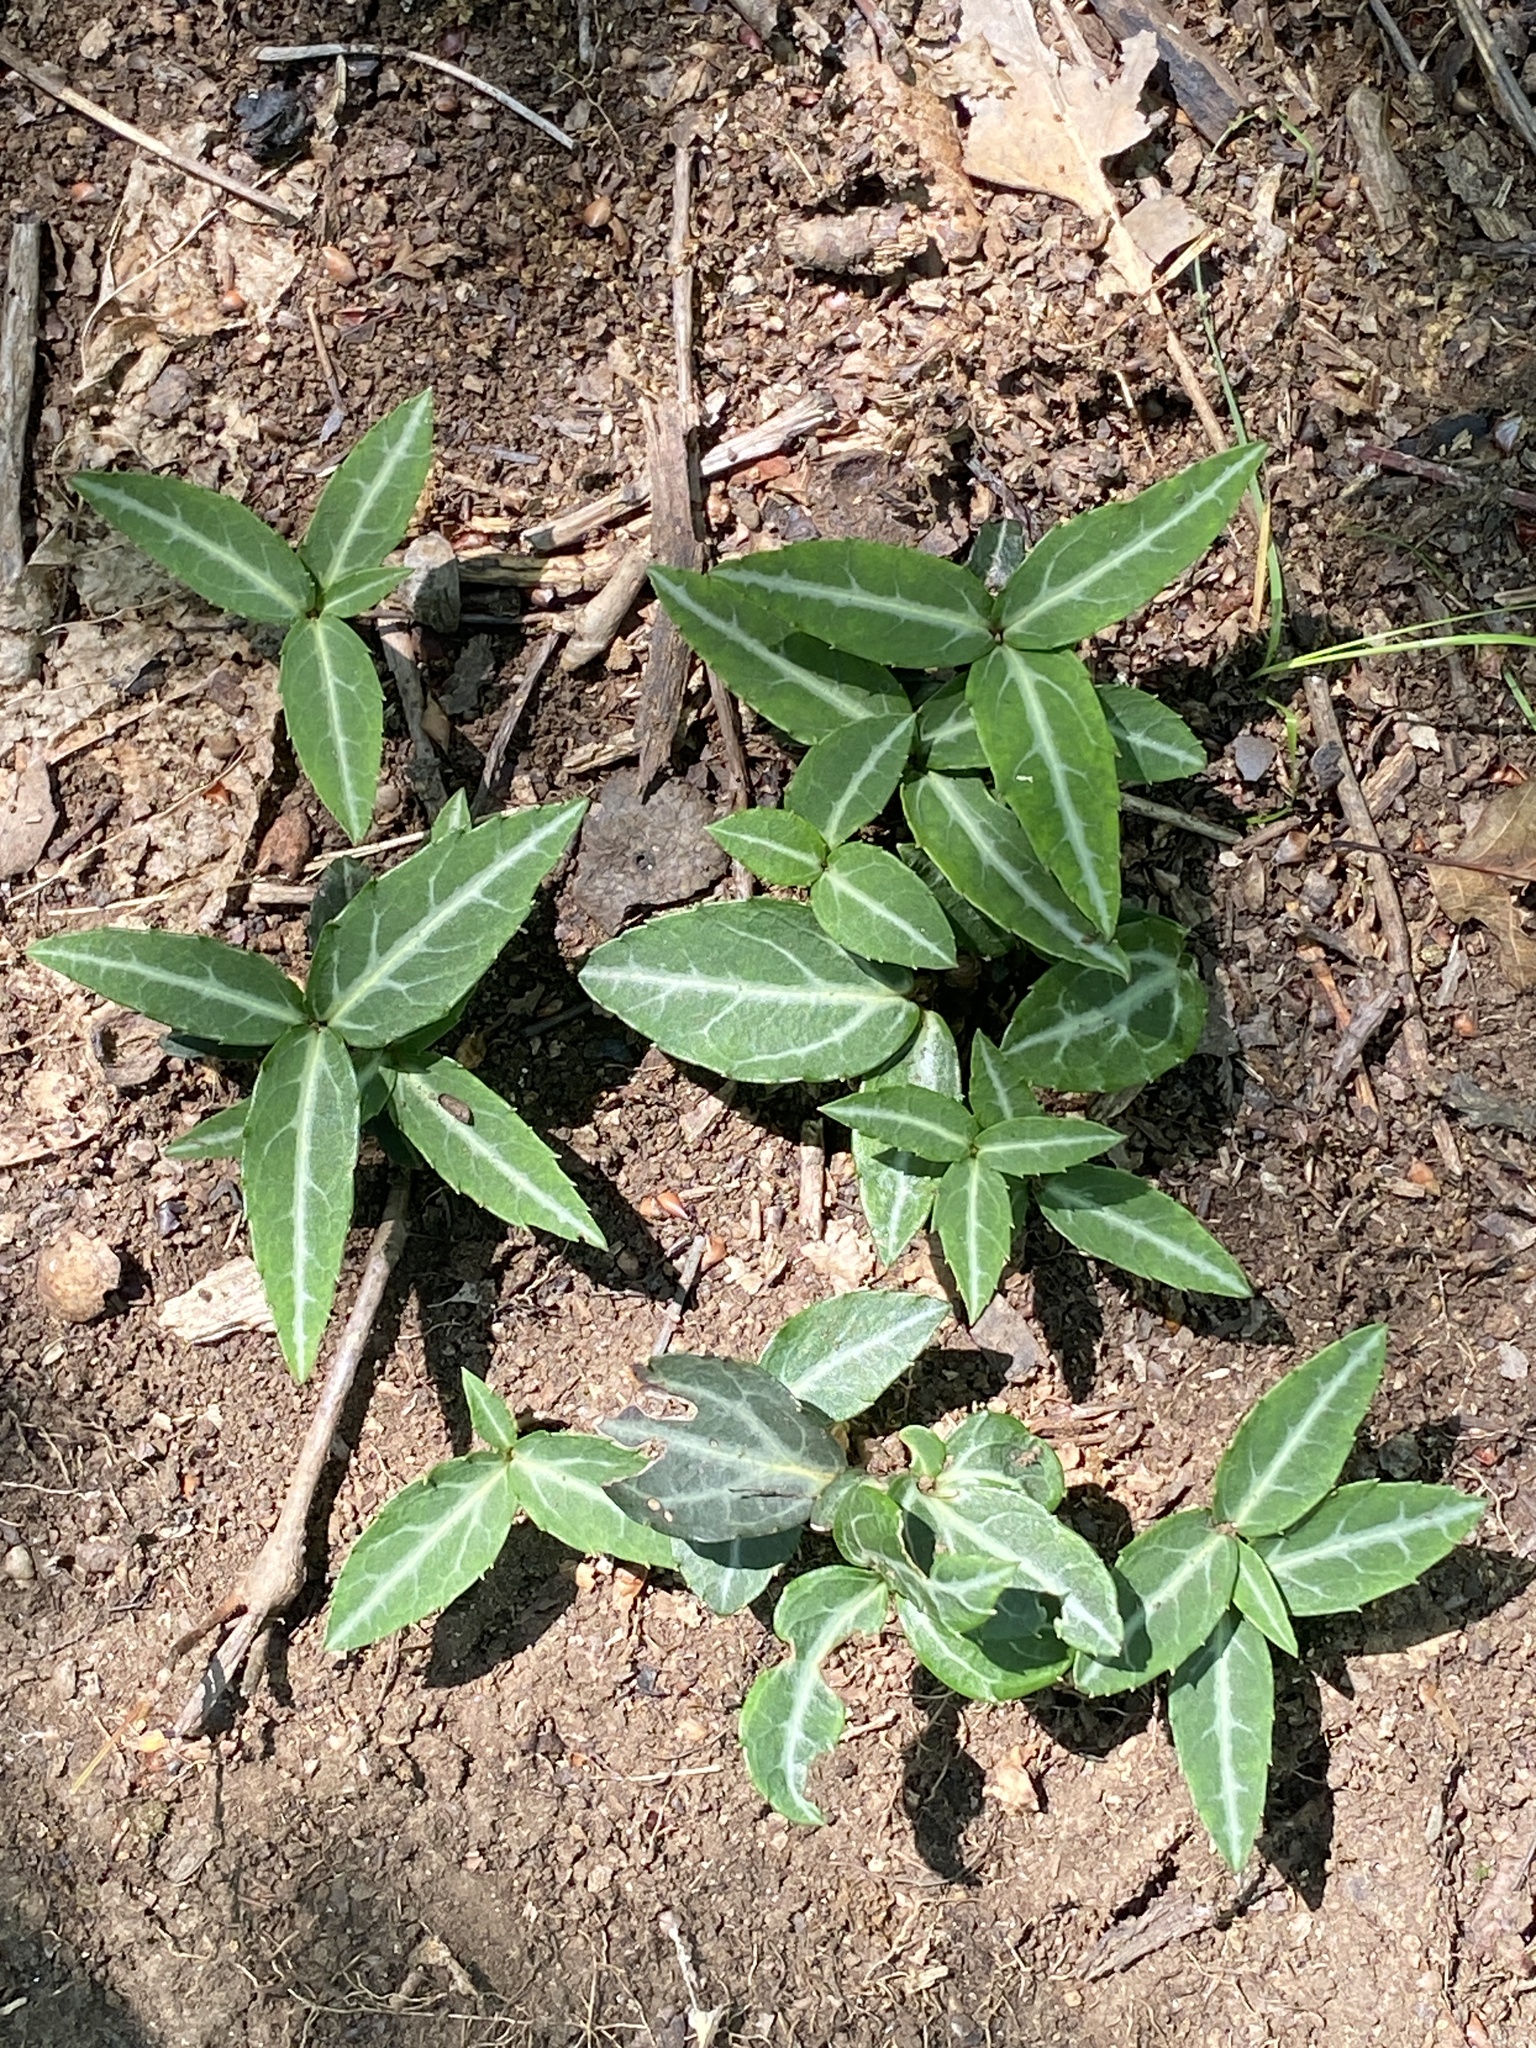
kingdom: Plantae
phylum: Tracheophyta
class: Magnoliopsida
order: Ericales
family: Ericaceae
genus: Chimaphila
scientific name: Chimaphila maculata
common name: Spotted pipsissewa
